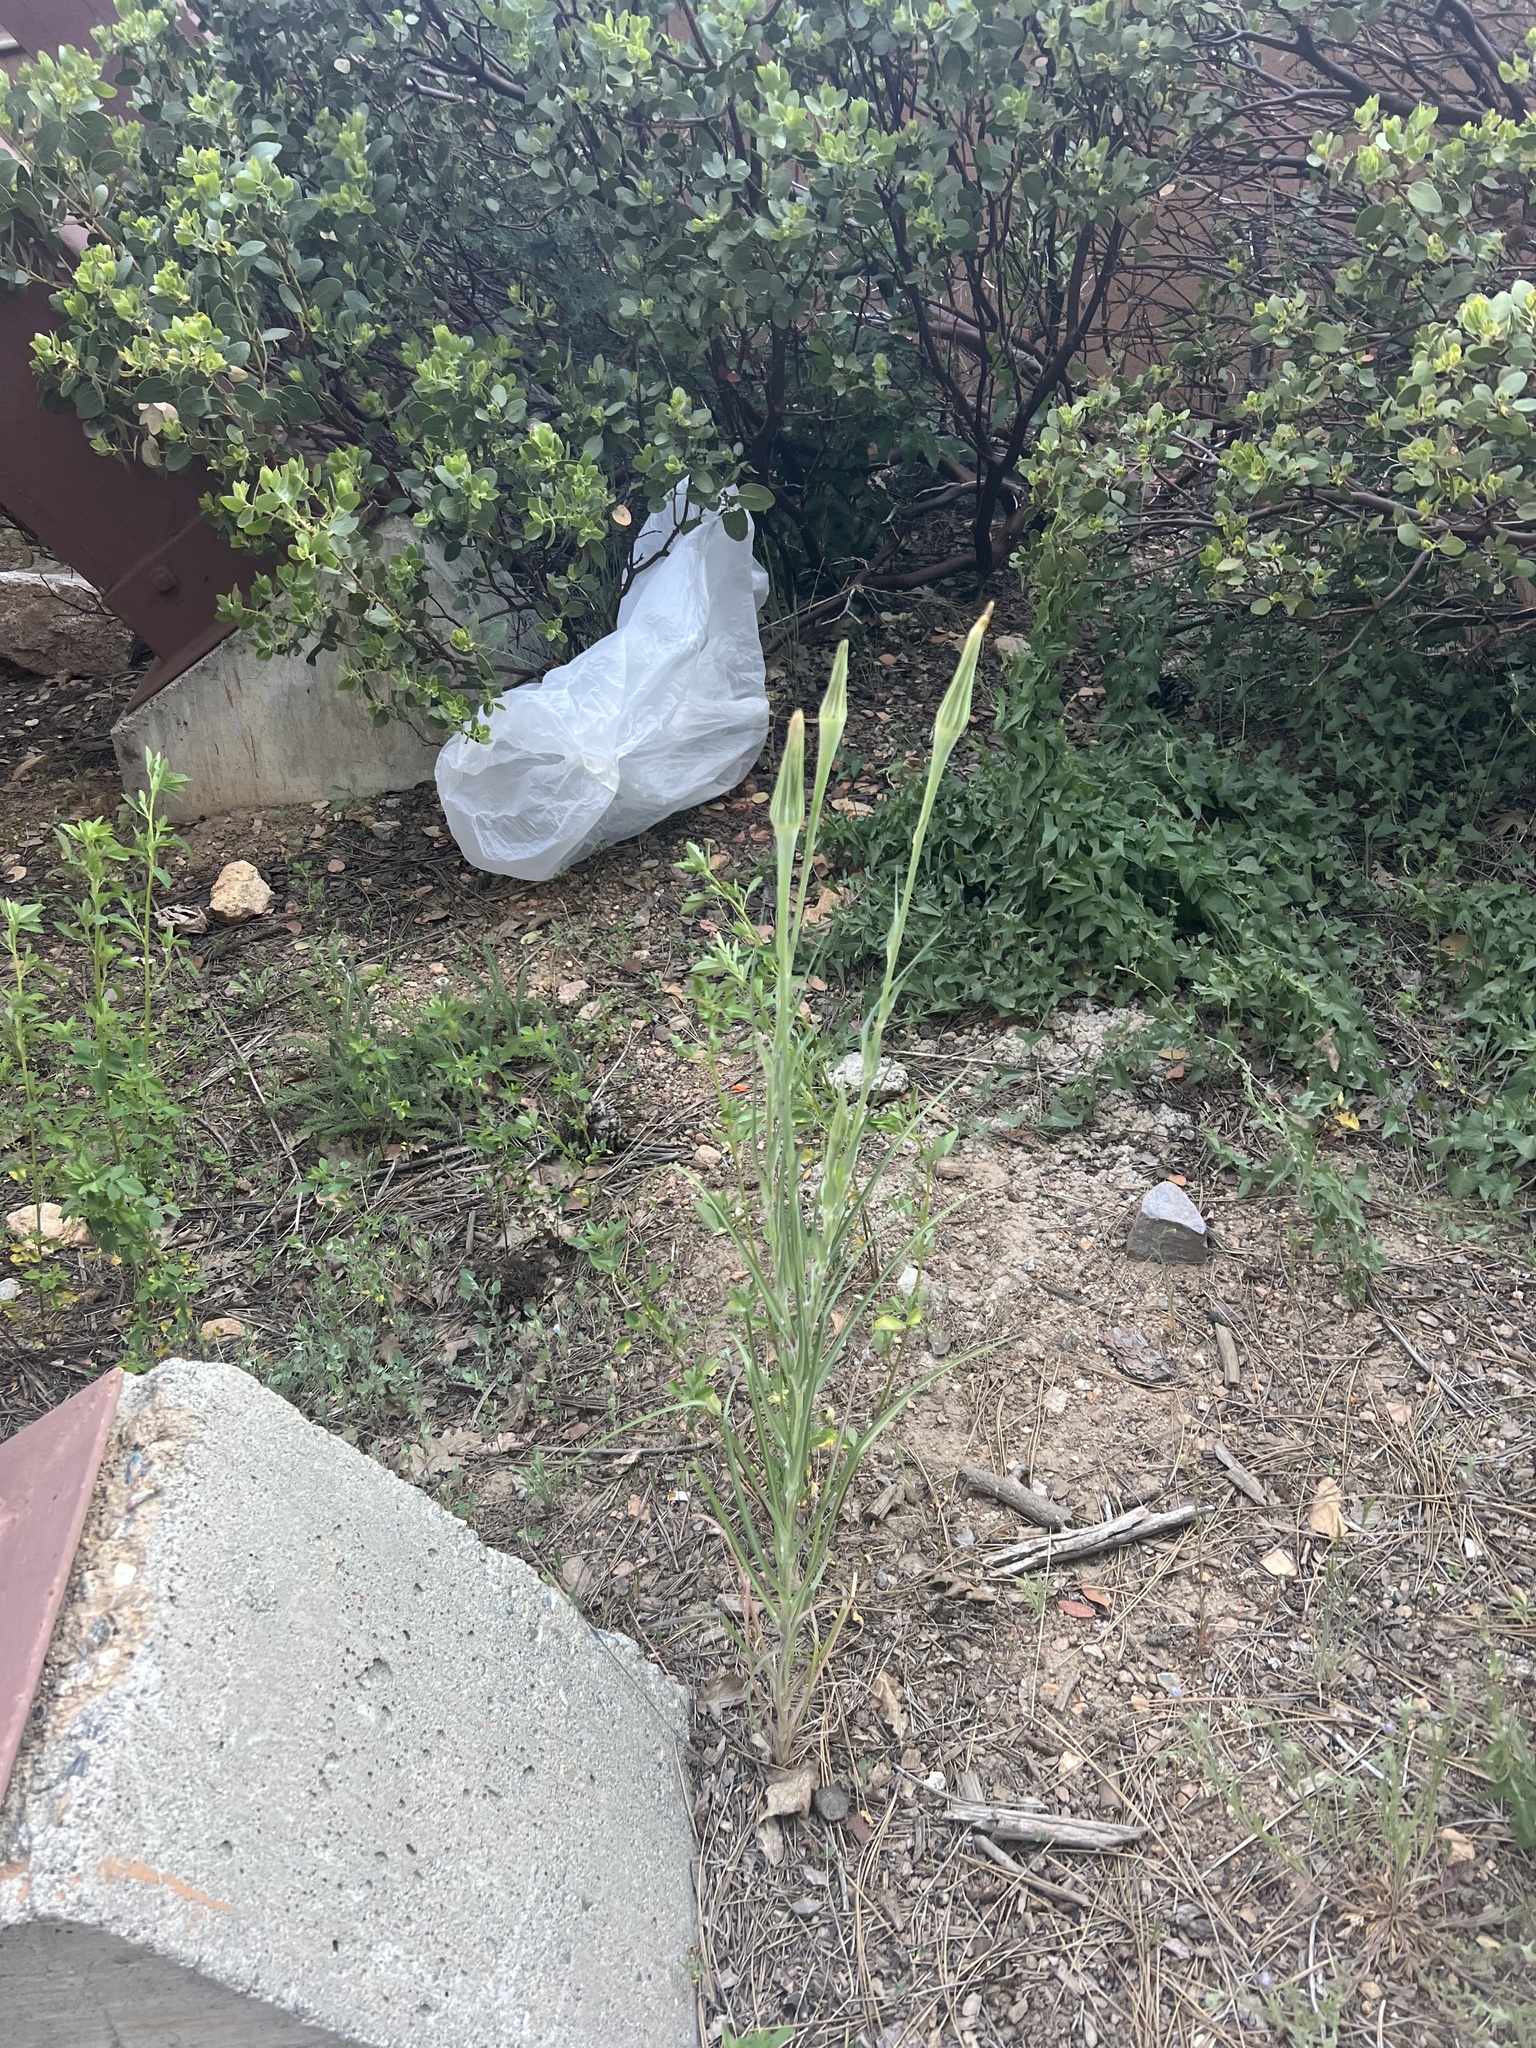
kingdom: Plantae
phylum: Tracheophyta
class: Magnoliopsida
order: Asterales
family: Asteraceae
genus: Tragopogon
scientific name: Tragopogon dubius
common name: Yellow salsify
